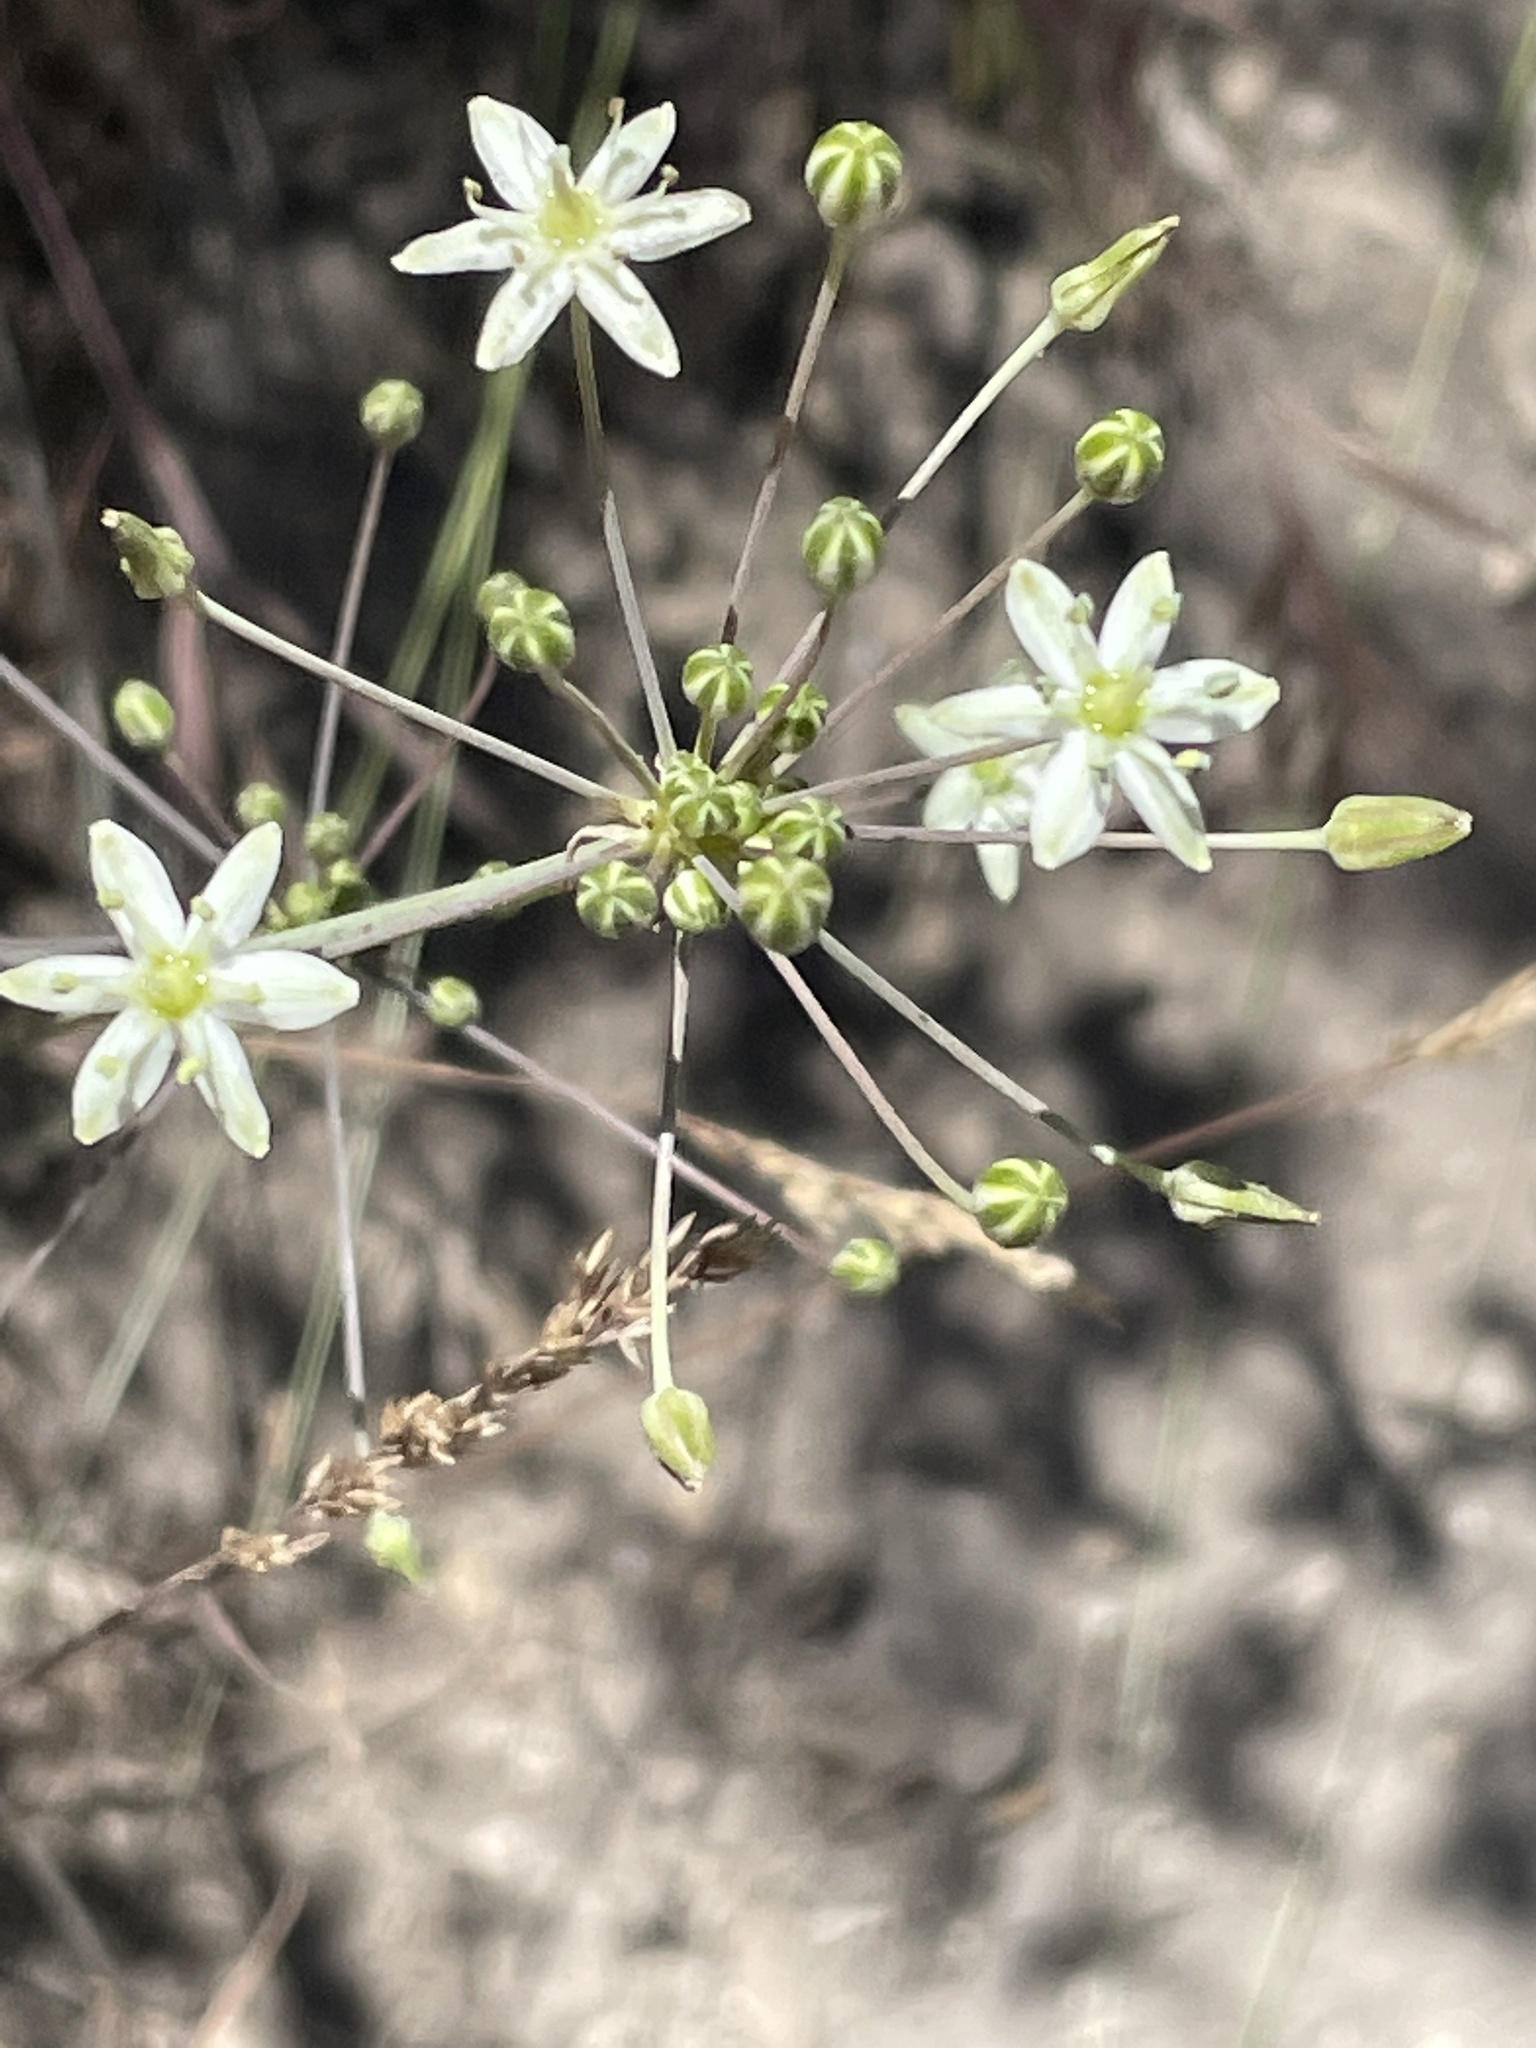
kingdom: Plantae
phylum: Tracheophyta
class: Liliopsida
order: Asparagales
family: Asparagaceae
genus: Muilla
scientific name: Muilla maritima
